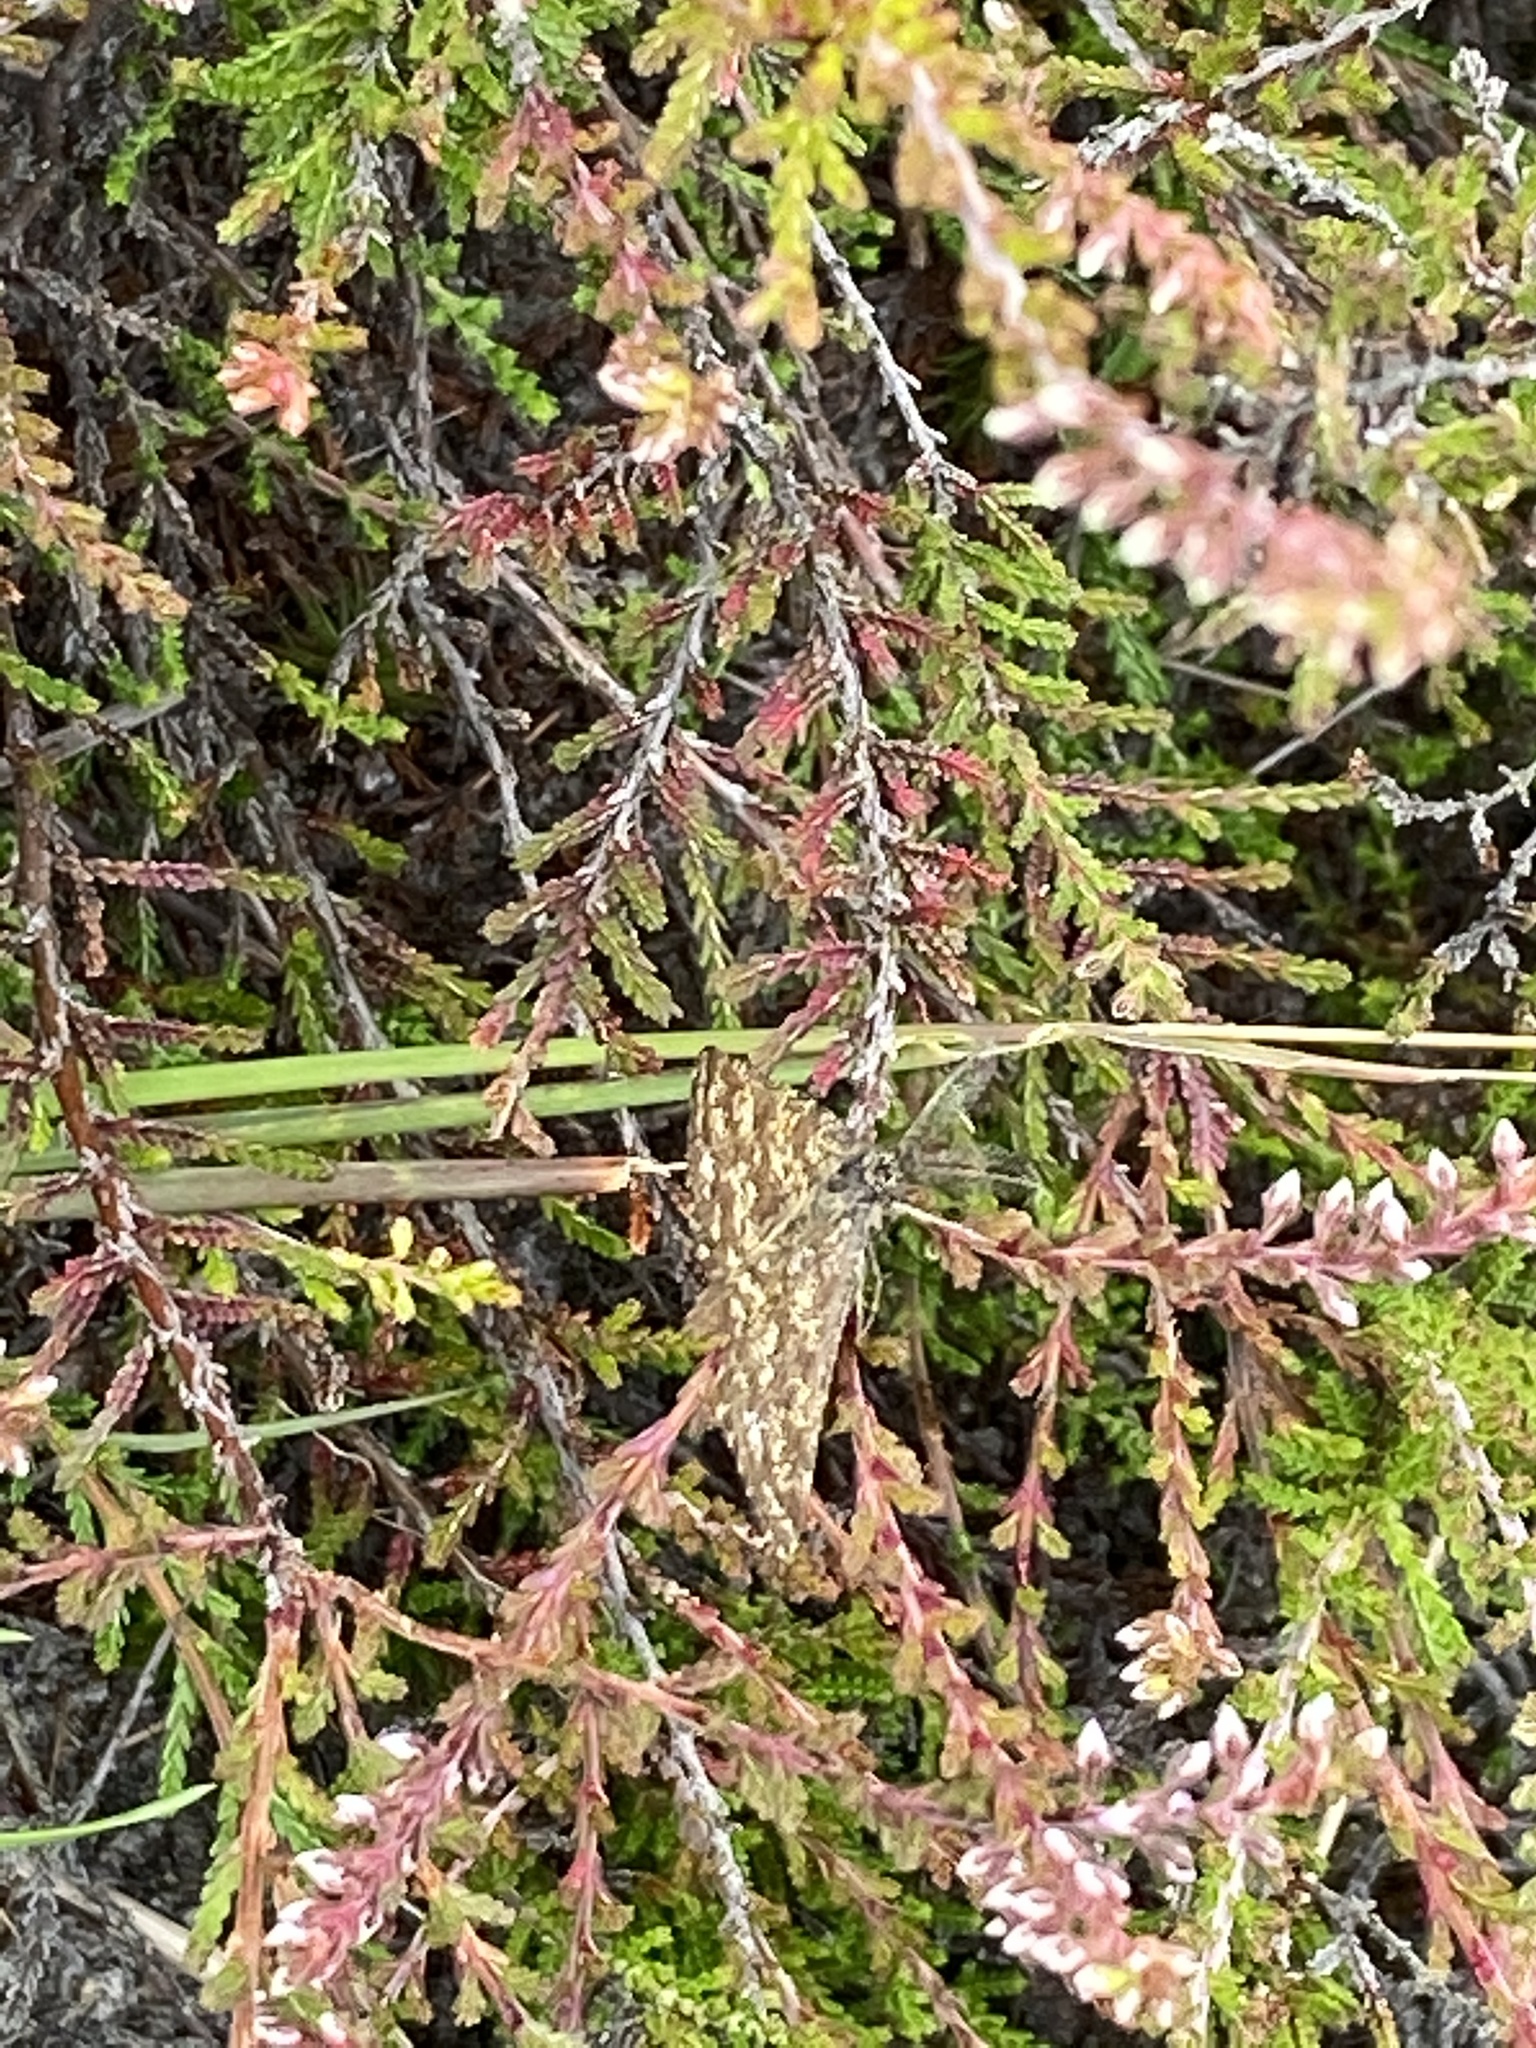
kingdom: Animalia
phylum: Arthropoda
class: Insecta
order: Lepidoptera
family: Geometridae
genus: Ematurga
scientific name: Ematurga atomaria
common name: Common heath
